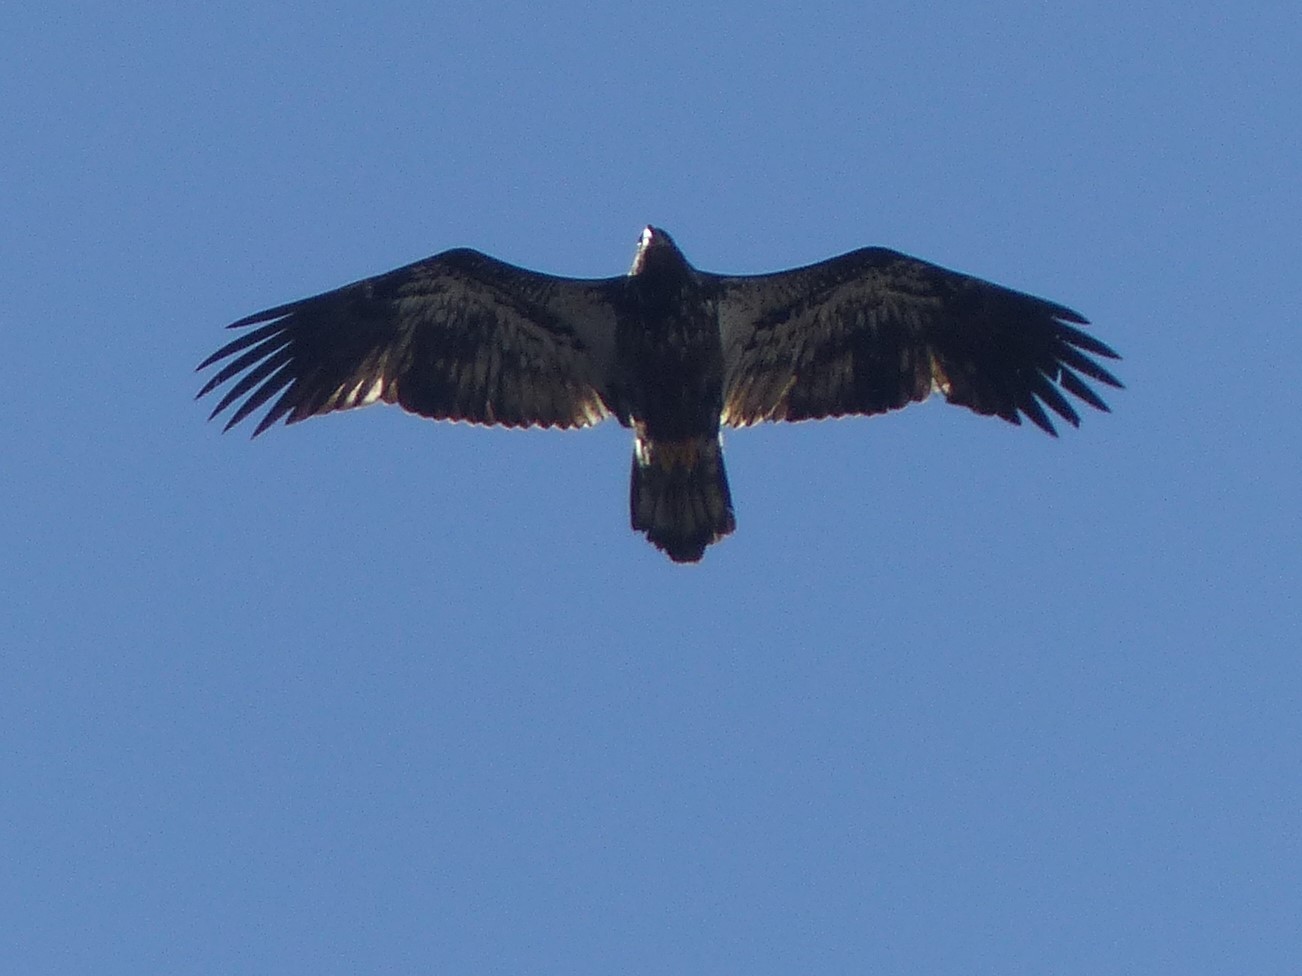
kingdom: Animalia
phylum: Chordata
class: Aves
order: Accipitriformes
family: Accipitridae
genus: Haliaeetus
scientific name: Haliaeetus leucocephalus
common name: Bald eagle
